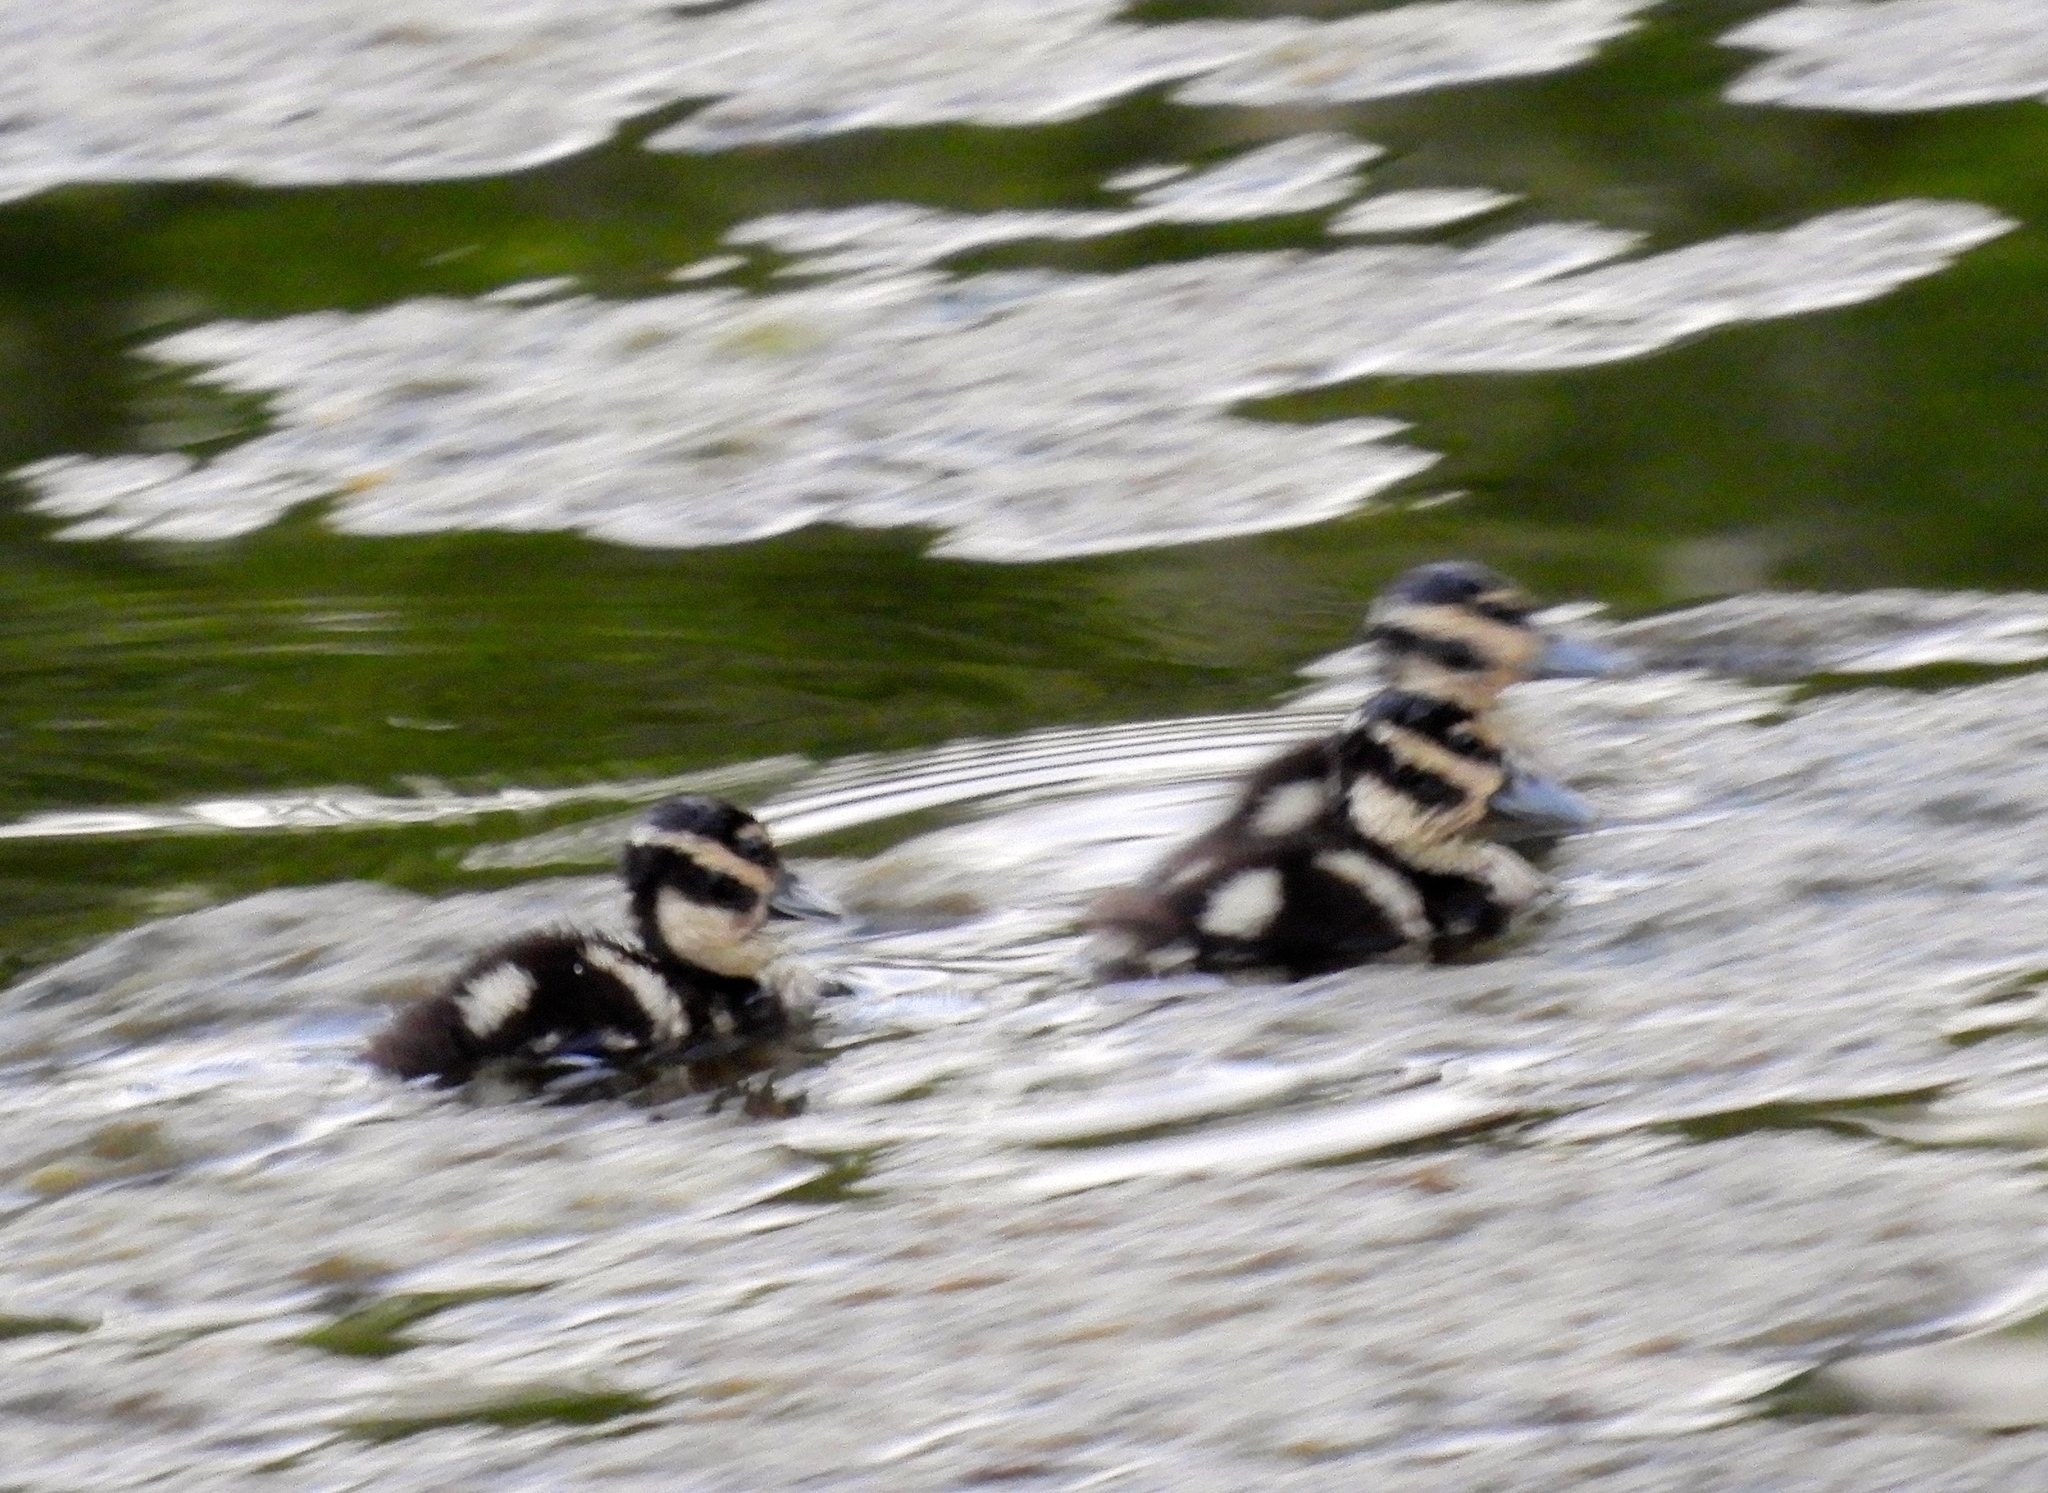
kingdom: Animalia
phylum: Chordata
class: Aves
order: Anseriformes
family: Anatidae
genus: Dendrocygna
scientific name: Dendrocygna autumnalis
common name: Black-bellied whistling duck
